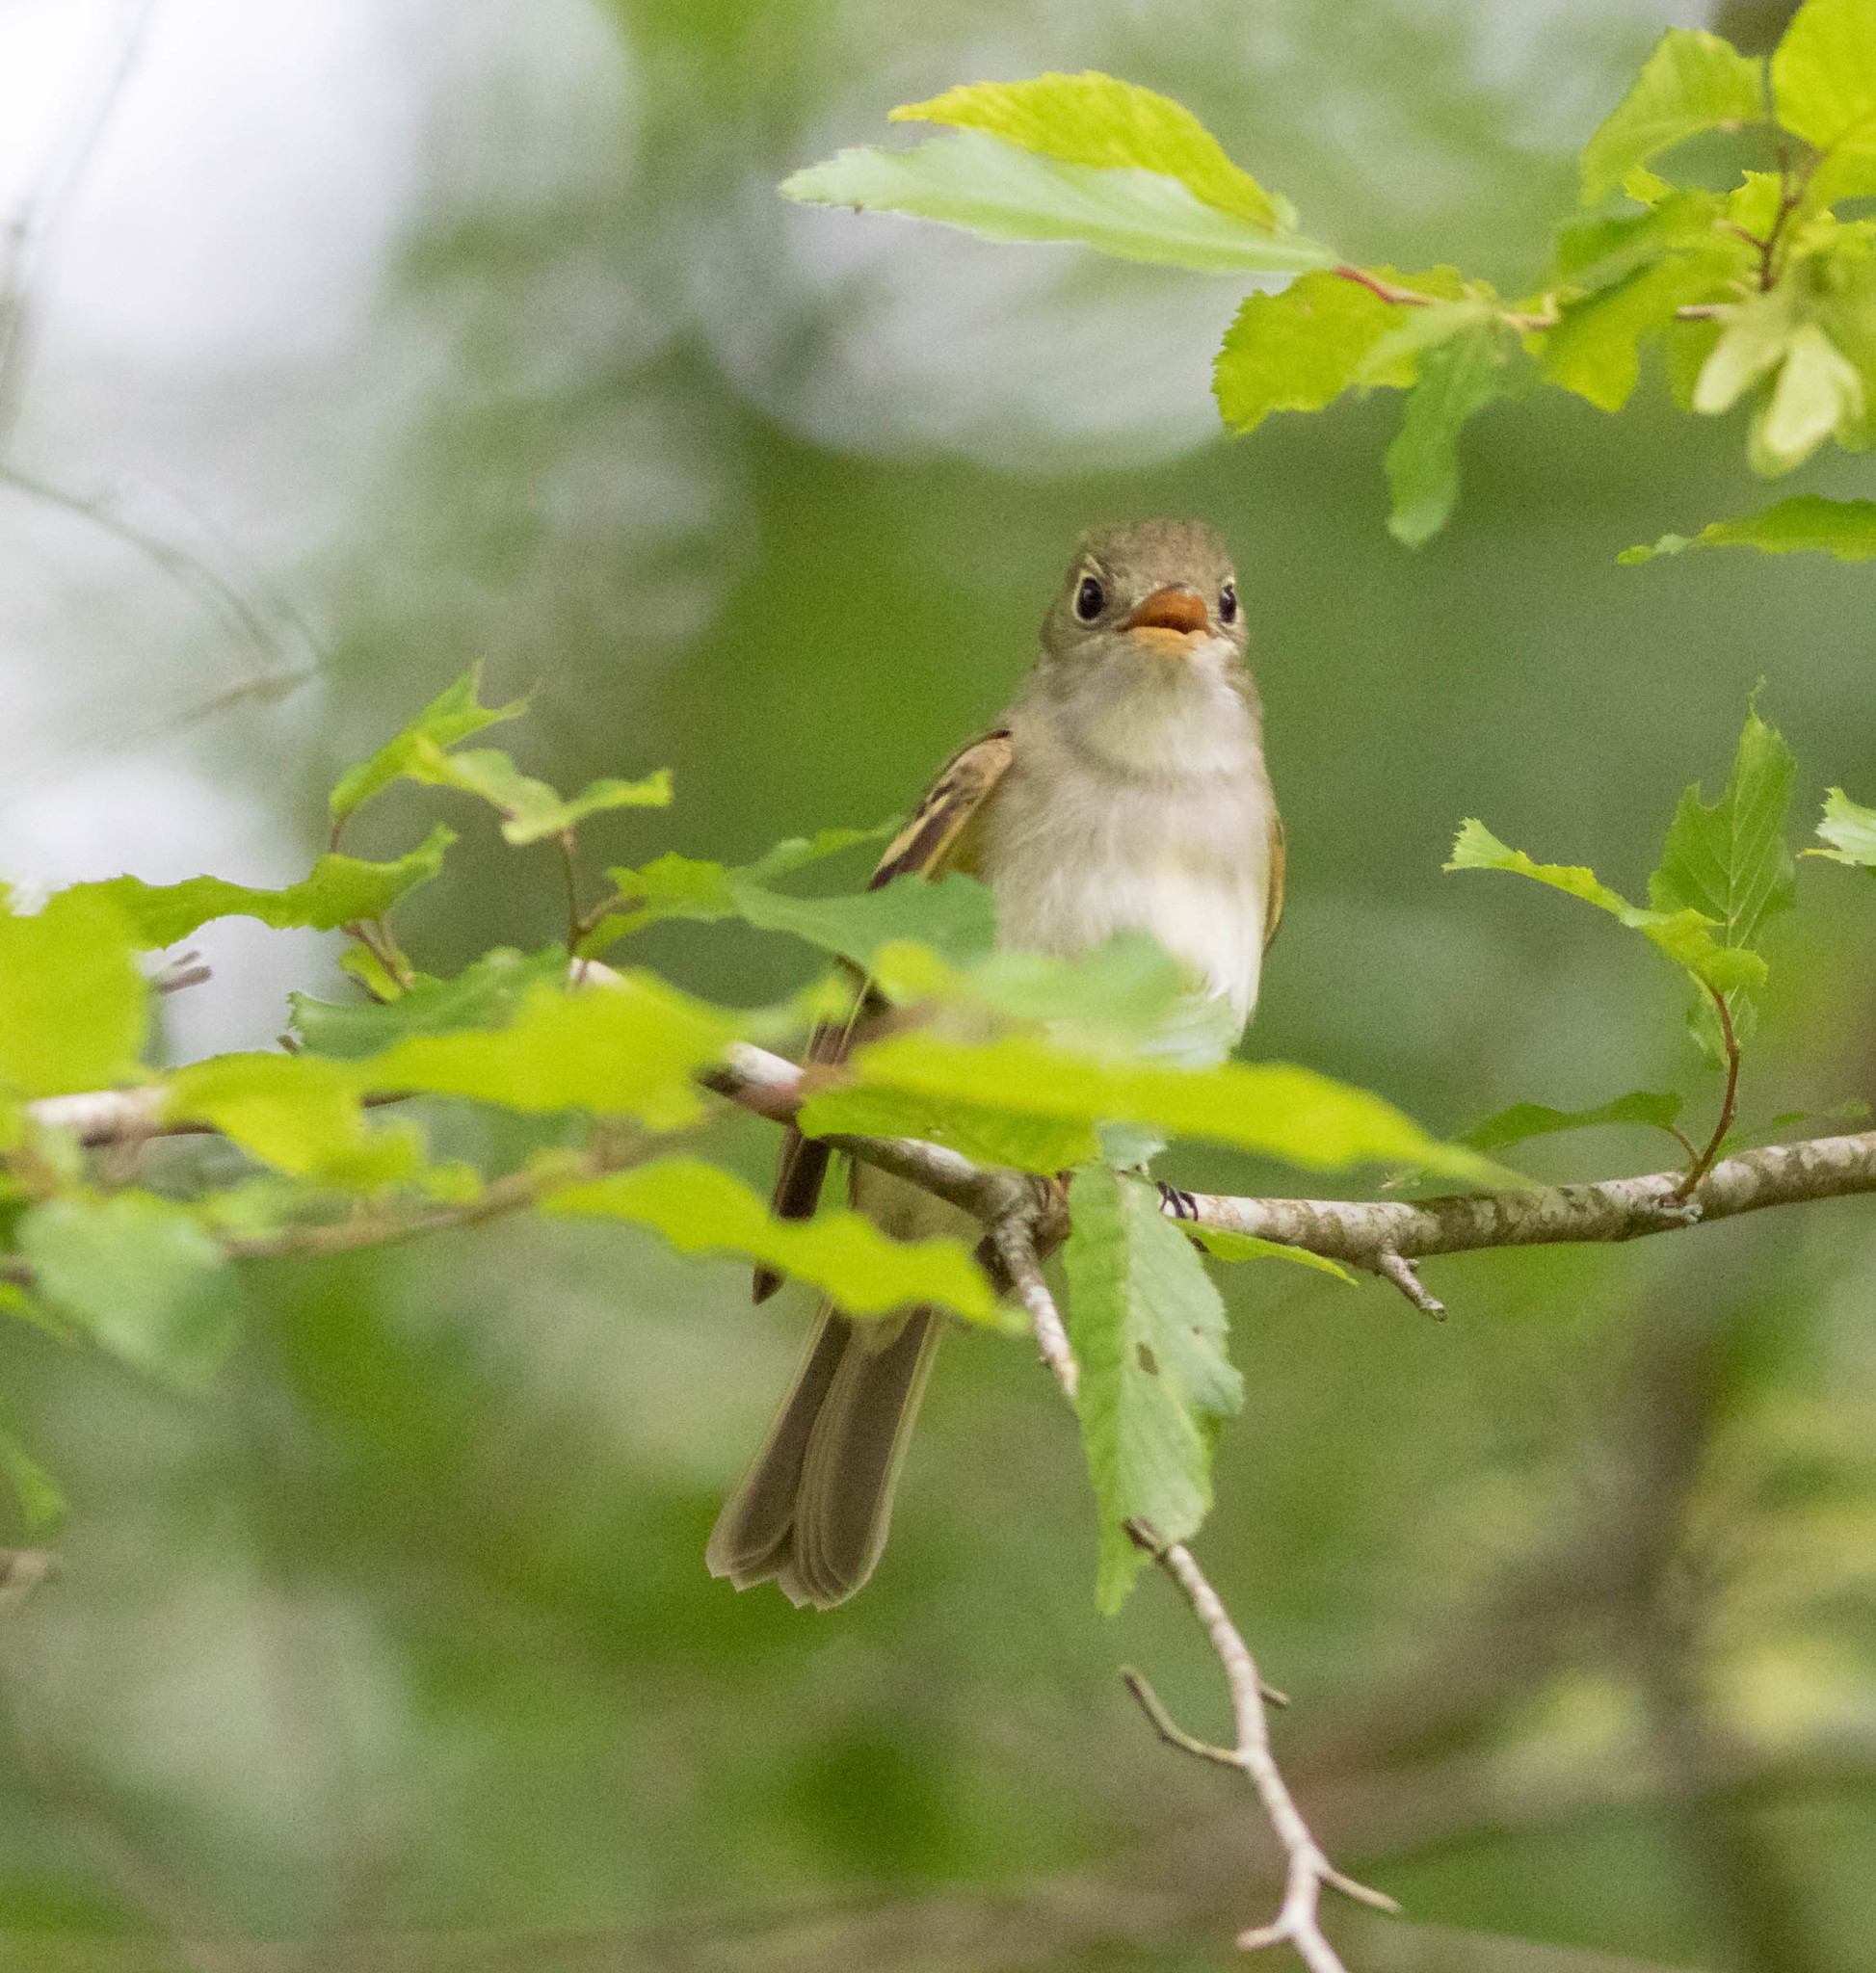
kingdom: Animalia
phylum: Chordata
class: Aves
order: Passeriformes
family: Tyrannidae
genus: Empidonax
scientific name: Empidonax virescens
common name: Acadian flycatcher
